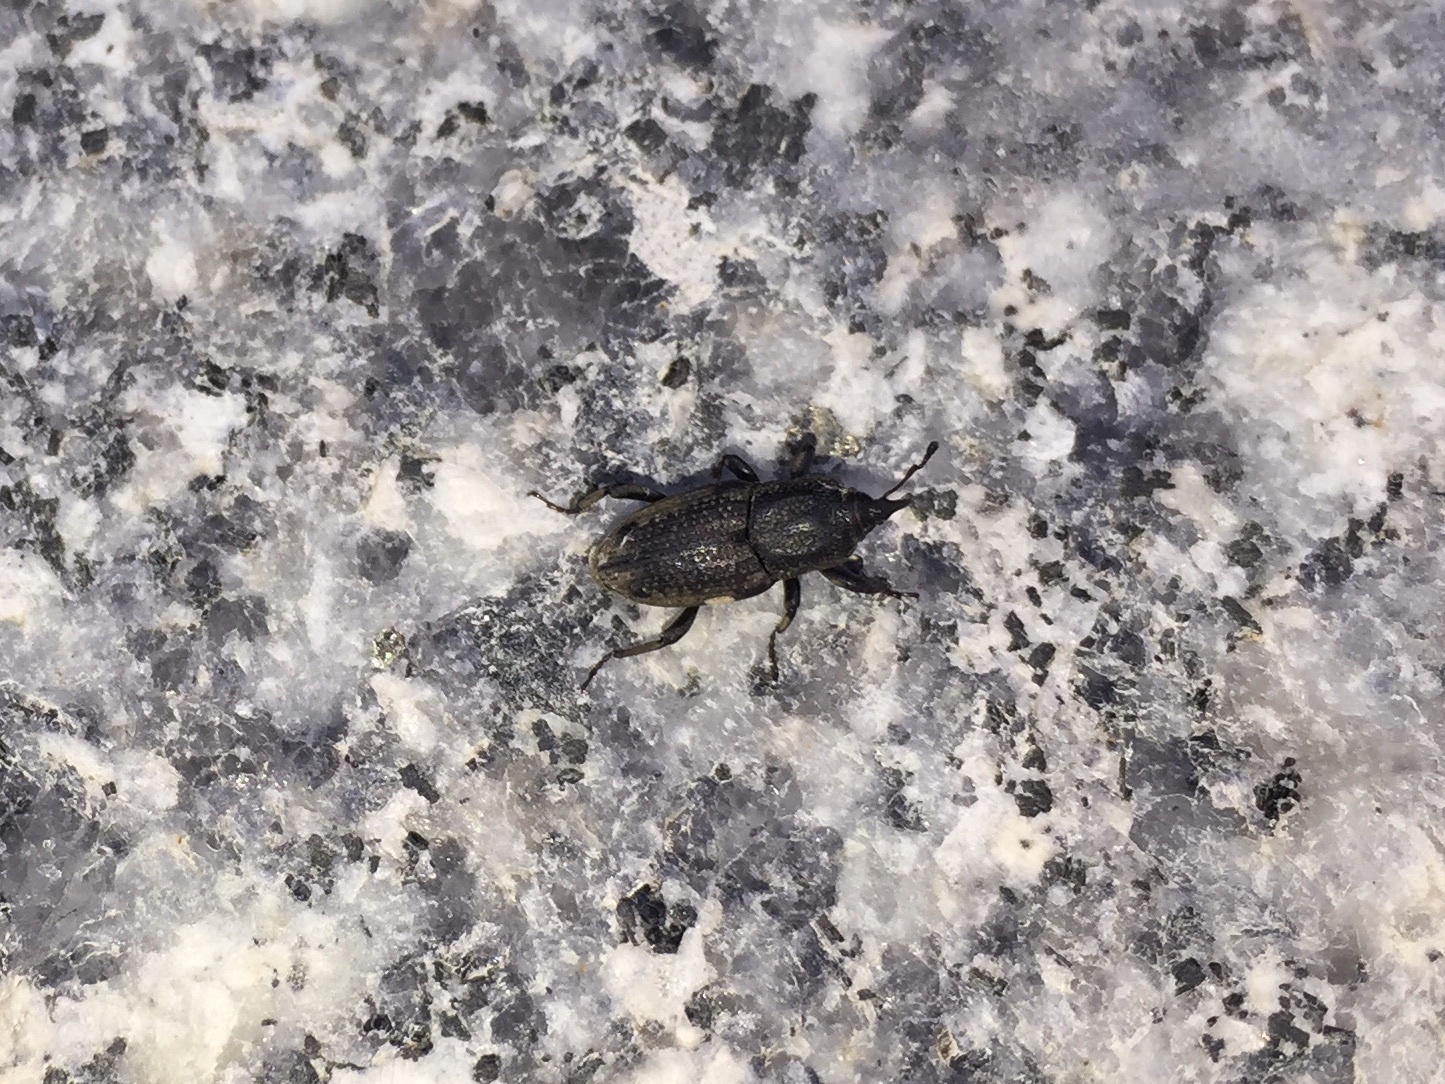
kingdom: Animalia
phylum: Arthropoda
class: Insecta
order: Coleoptera
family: Dryophthoridae
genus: Sphenophorus
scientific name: Sphenophorus venatus
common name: Hunting billbug
